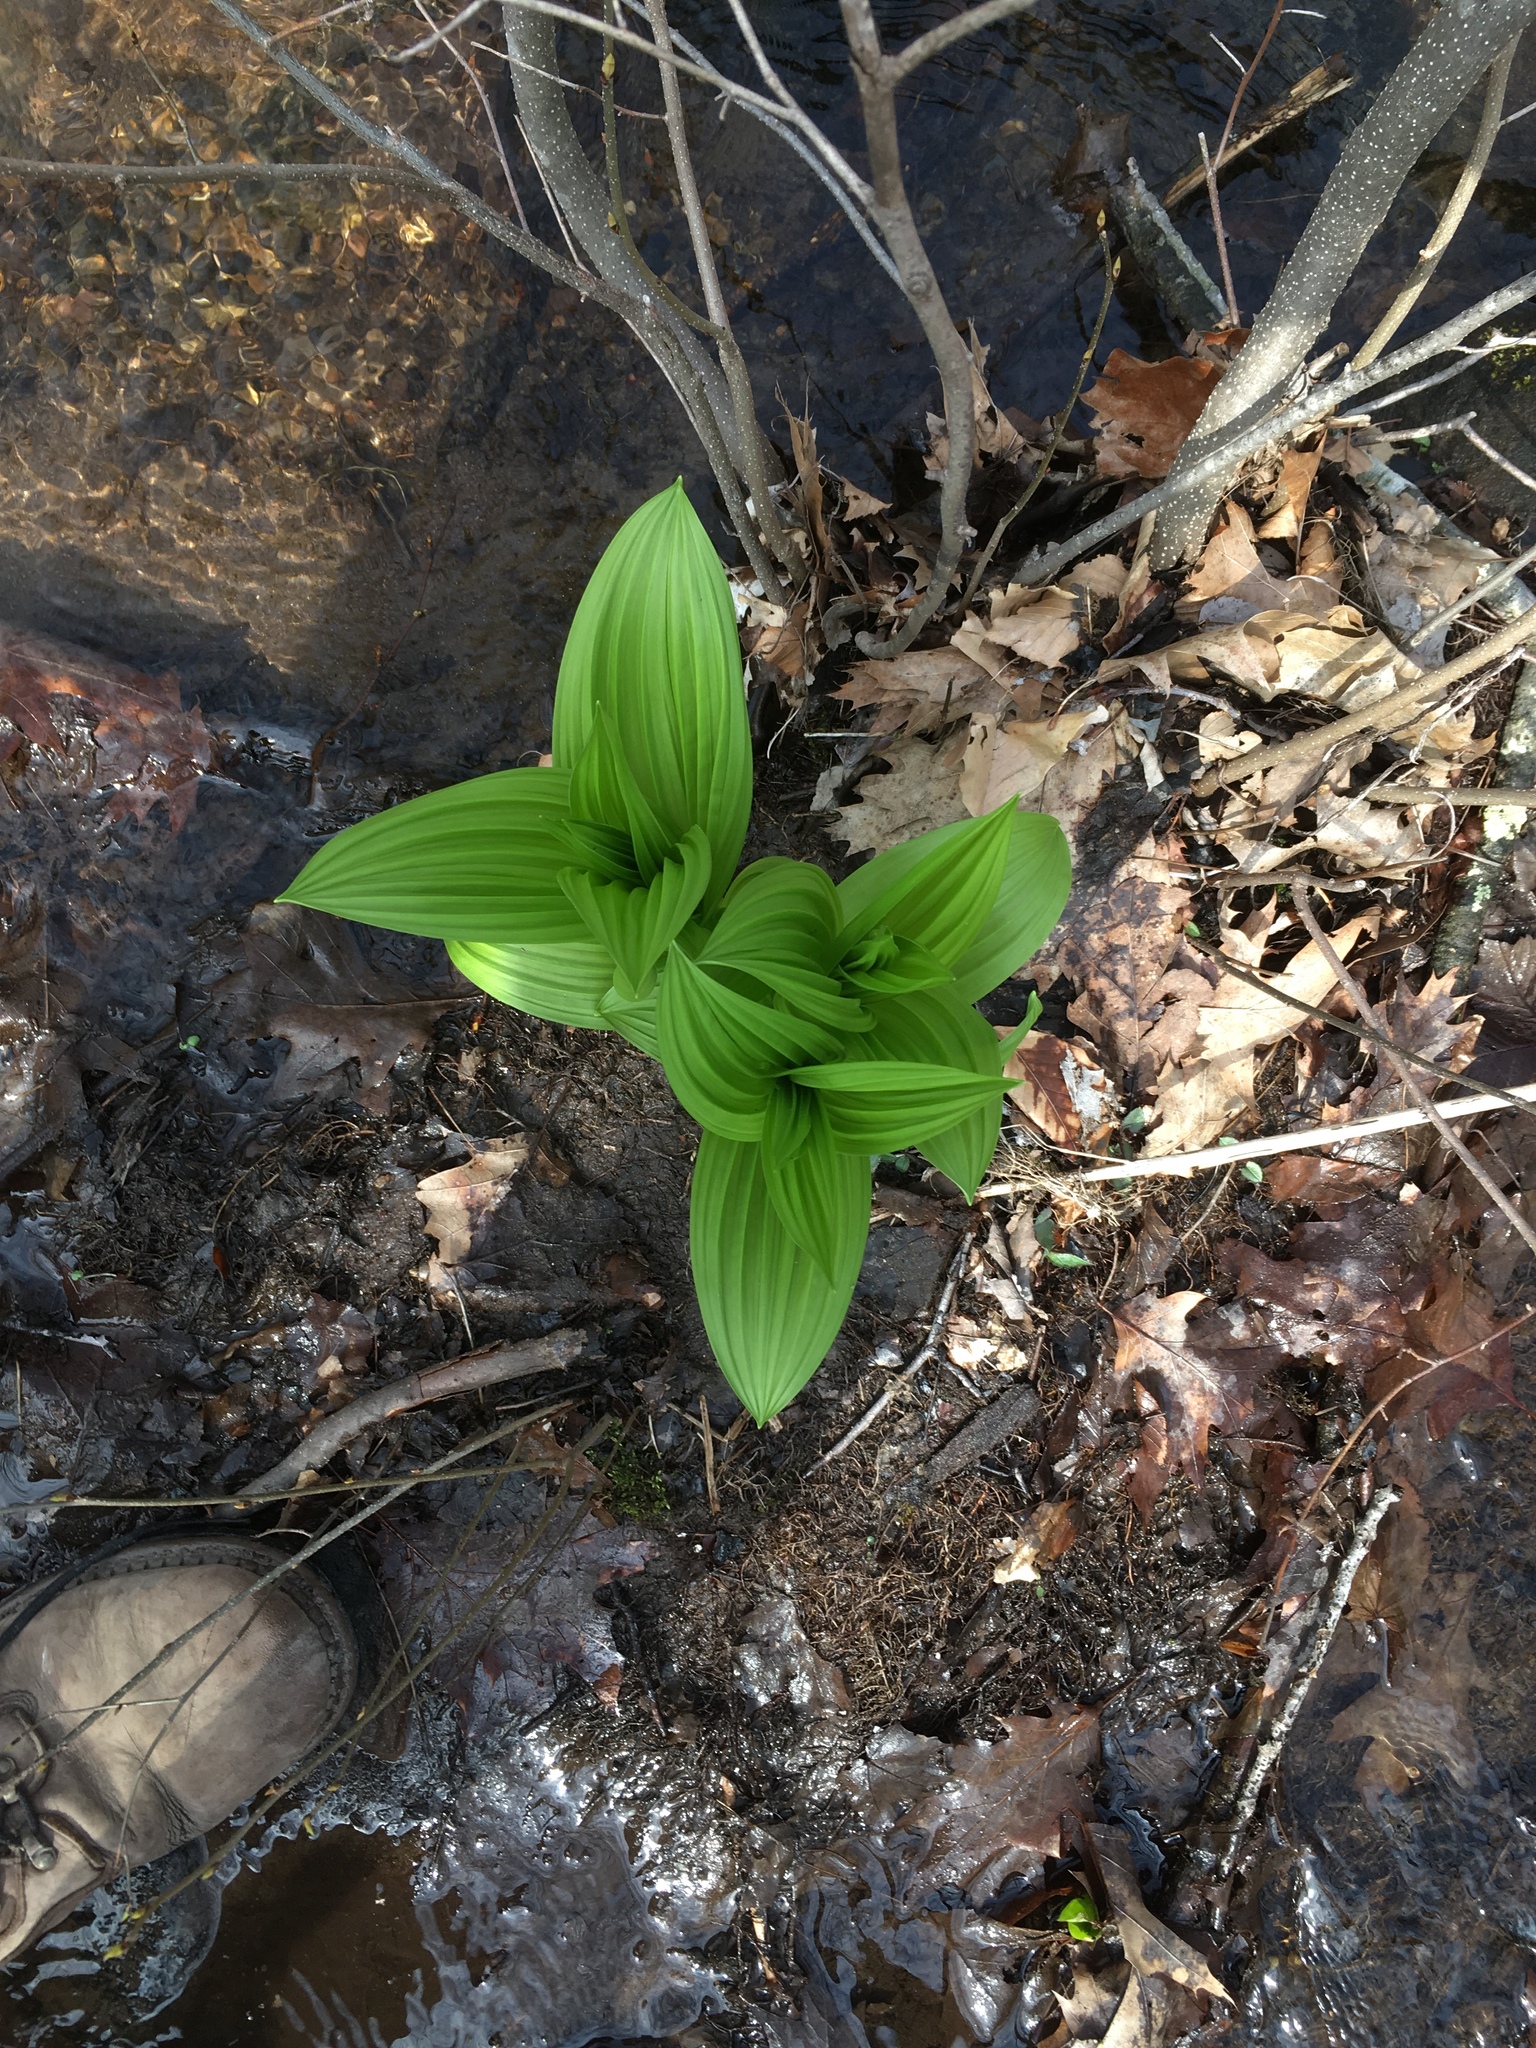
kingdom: Plantae
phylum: Tracheophyta
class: Liliopsida
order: Liliales
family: Melanthiaceae
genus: Veratrum
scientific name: Veratrum viride
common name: American false hellebore
